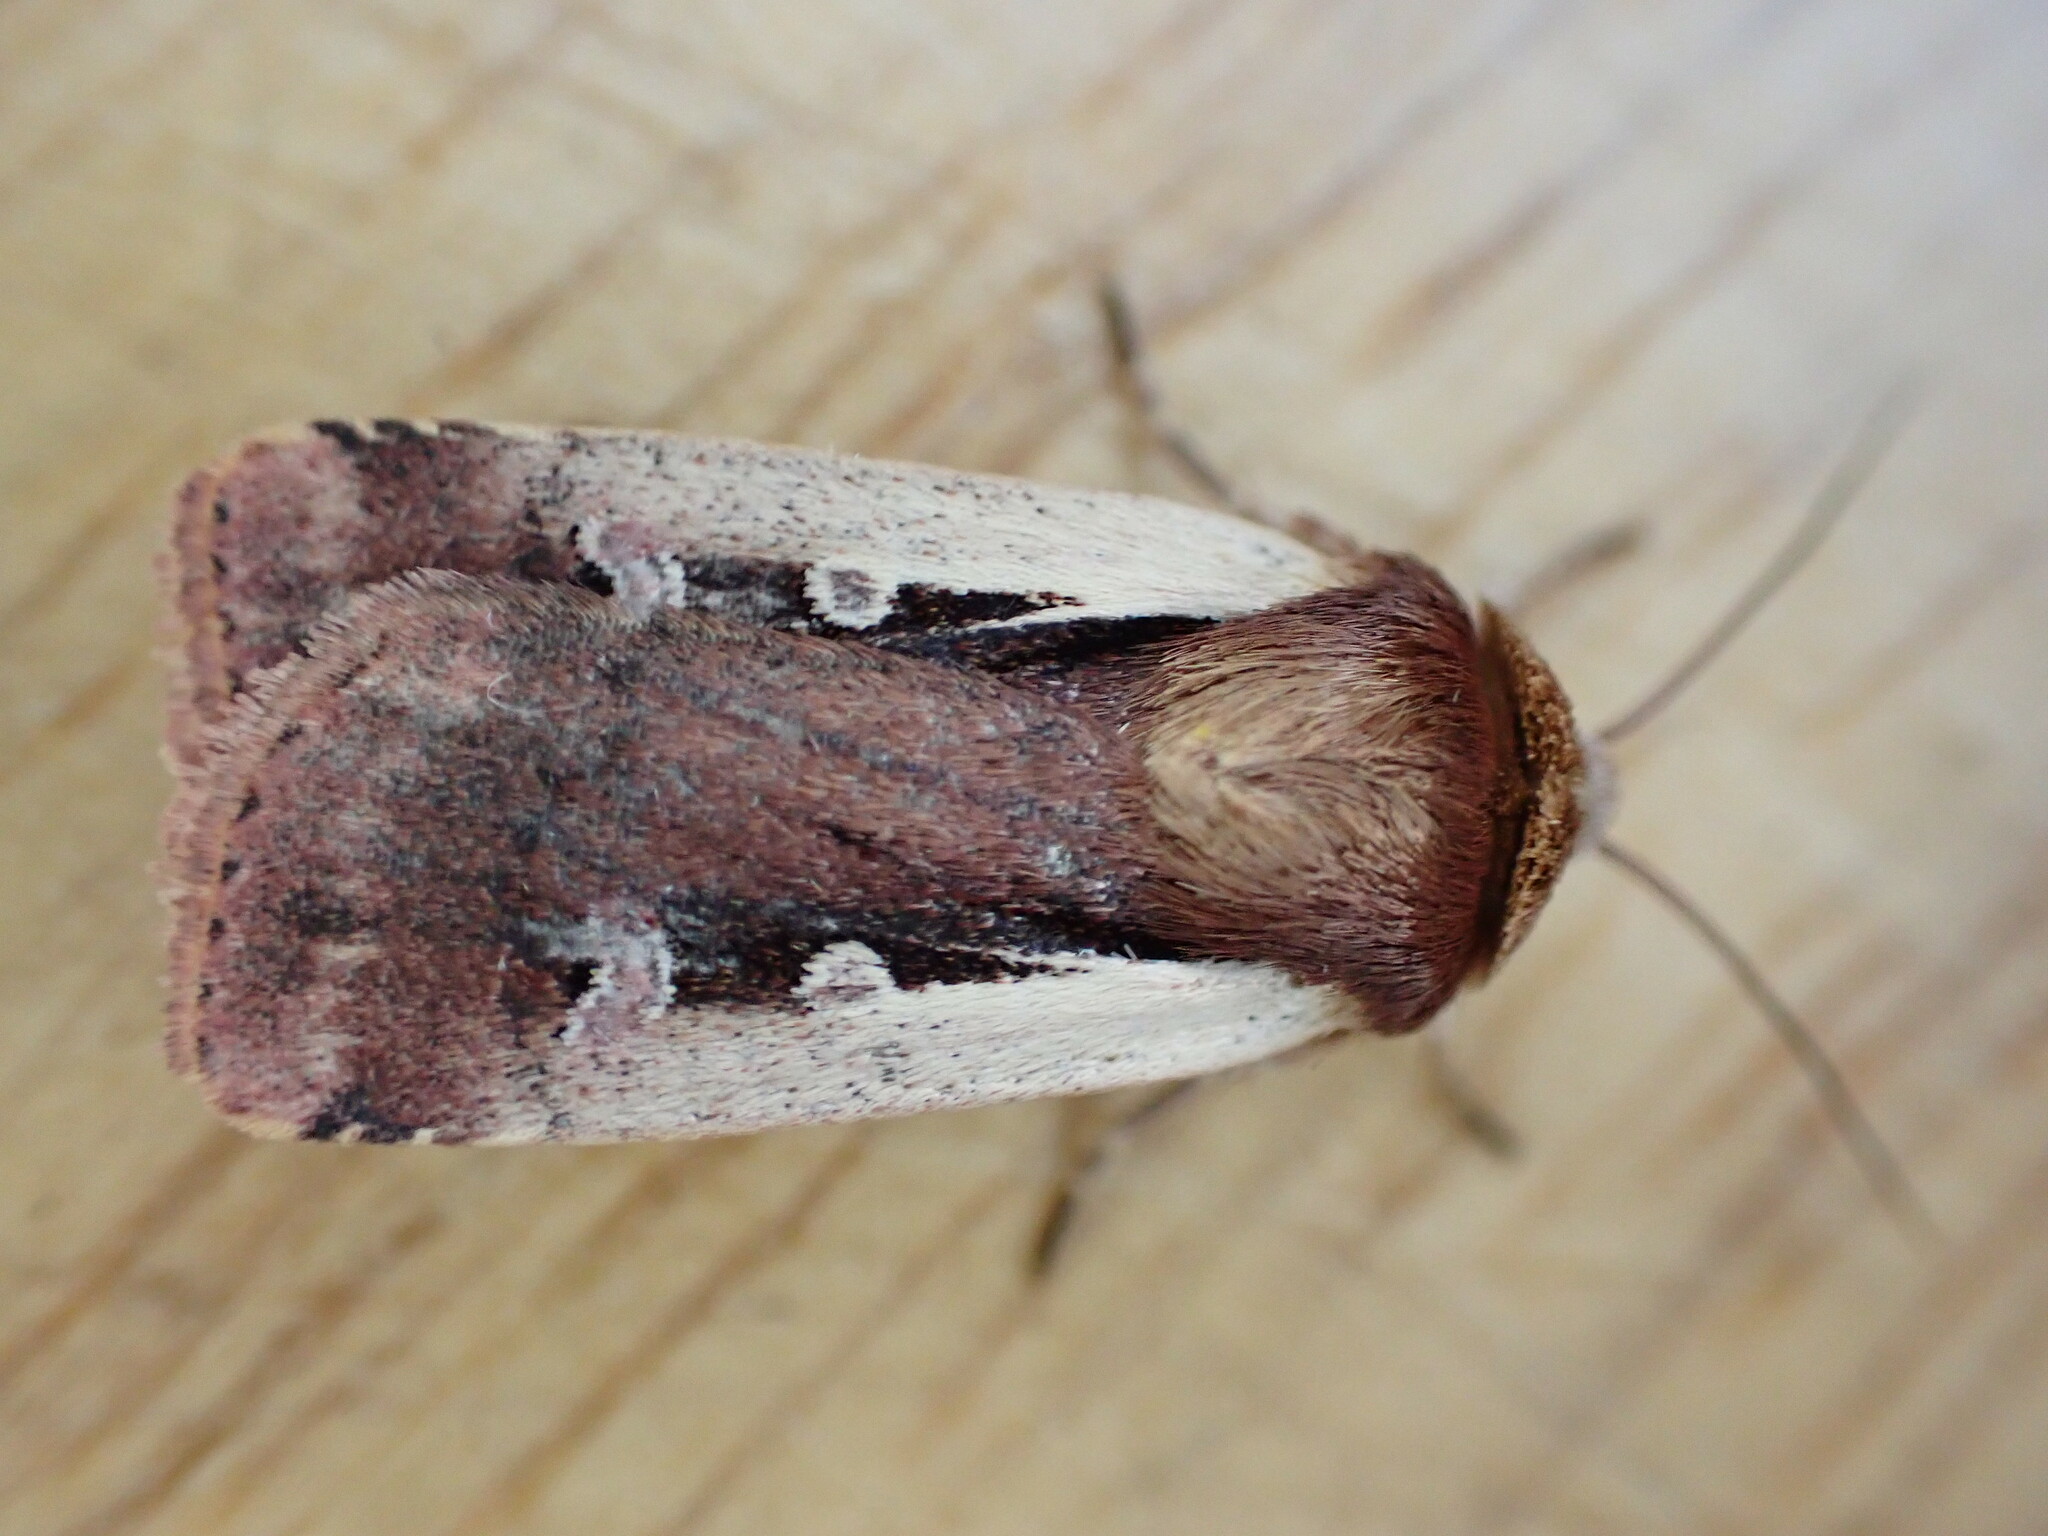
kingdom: Animalia
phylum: Arthropoda
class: Insecta
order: Lepidoptera
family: Noctuidae
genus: Ochropleura
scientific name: Ochropleura plecta
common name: Flame shoulder
